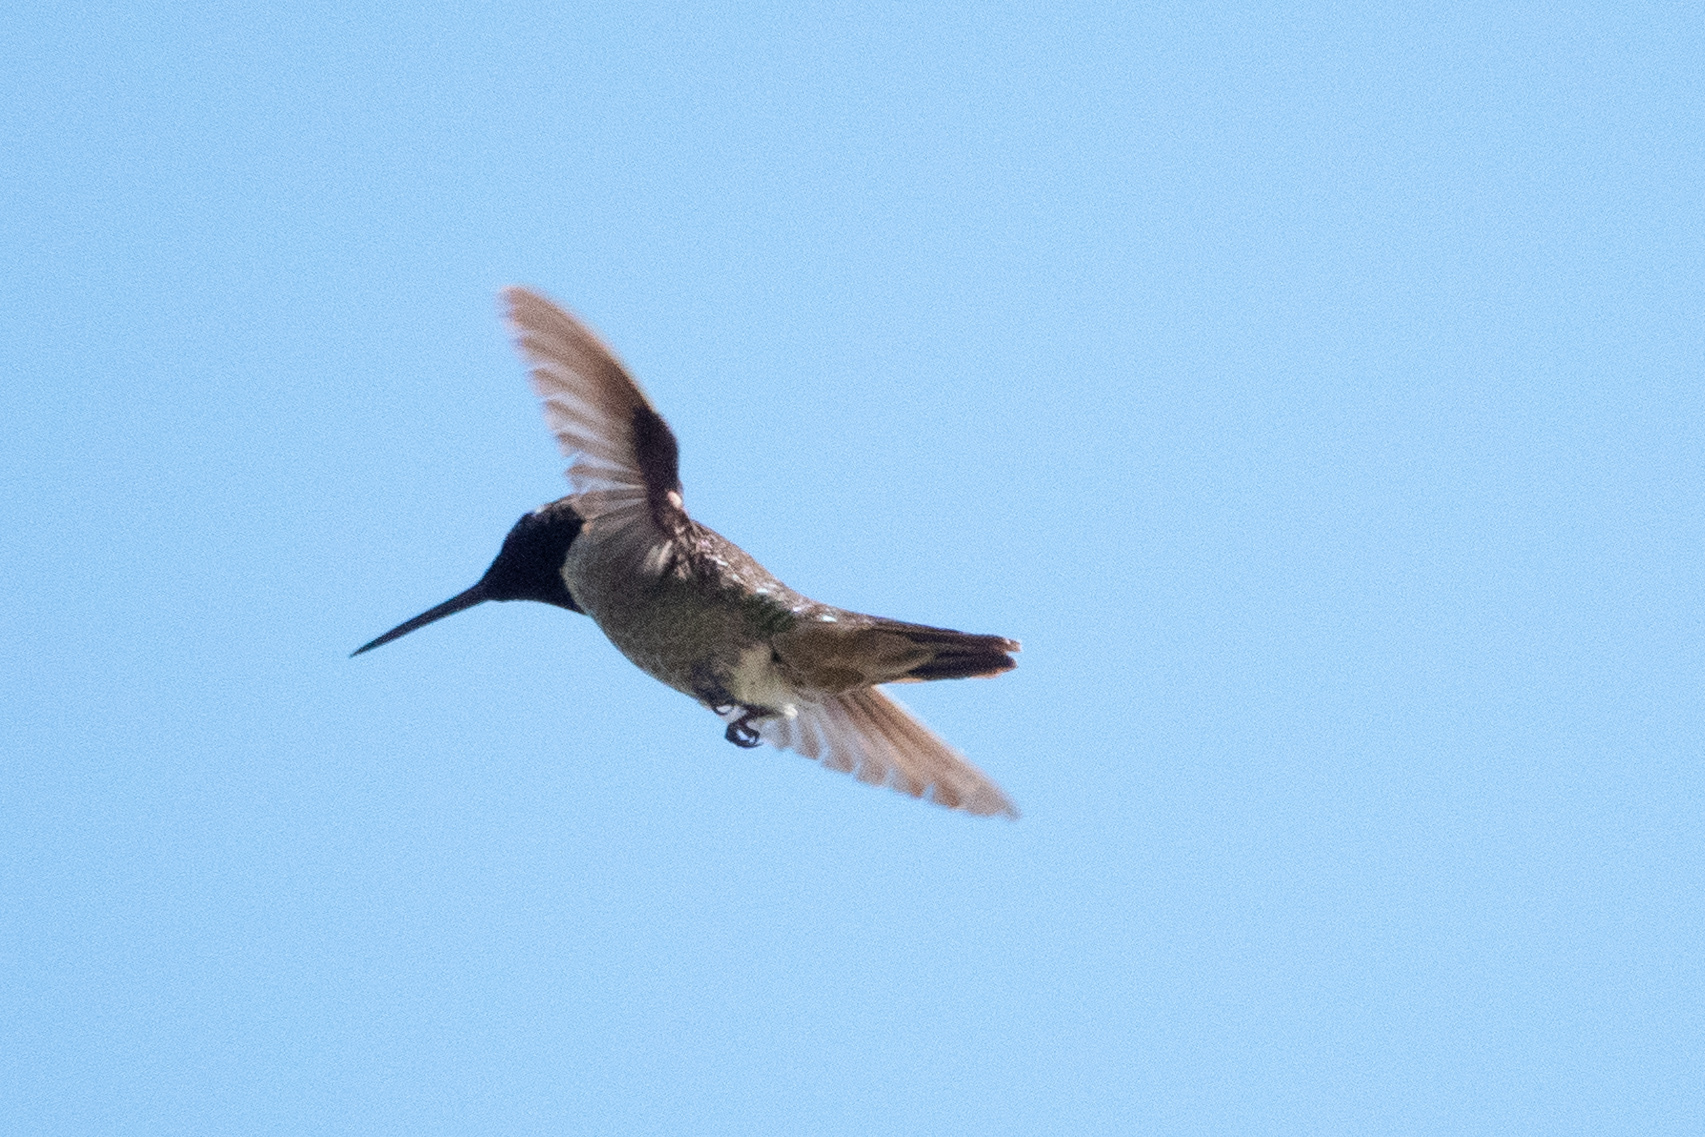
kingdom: Animalia
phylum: Chordata
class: Aves
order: Apodiformes
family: Trochilidae
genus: Calypte
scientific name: Calypte anna
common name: Anna's hummingbird
